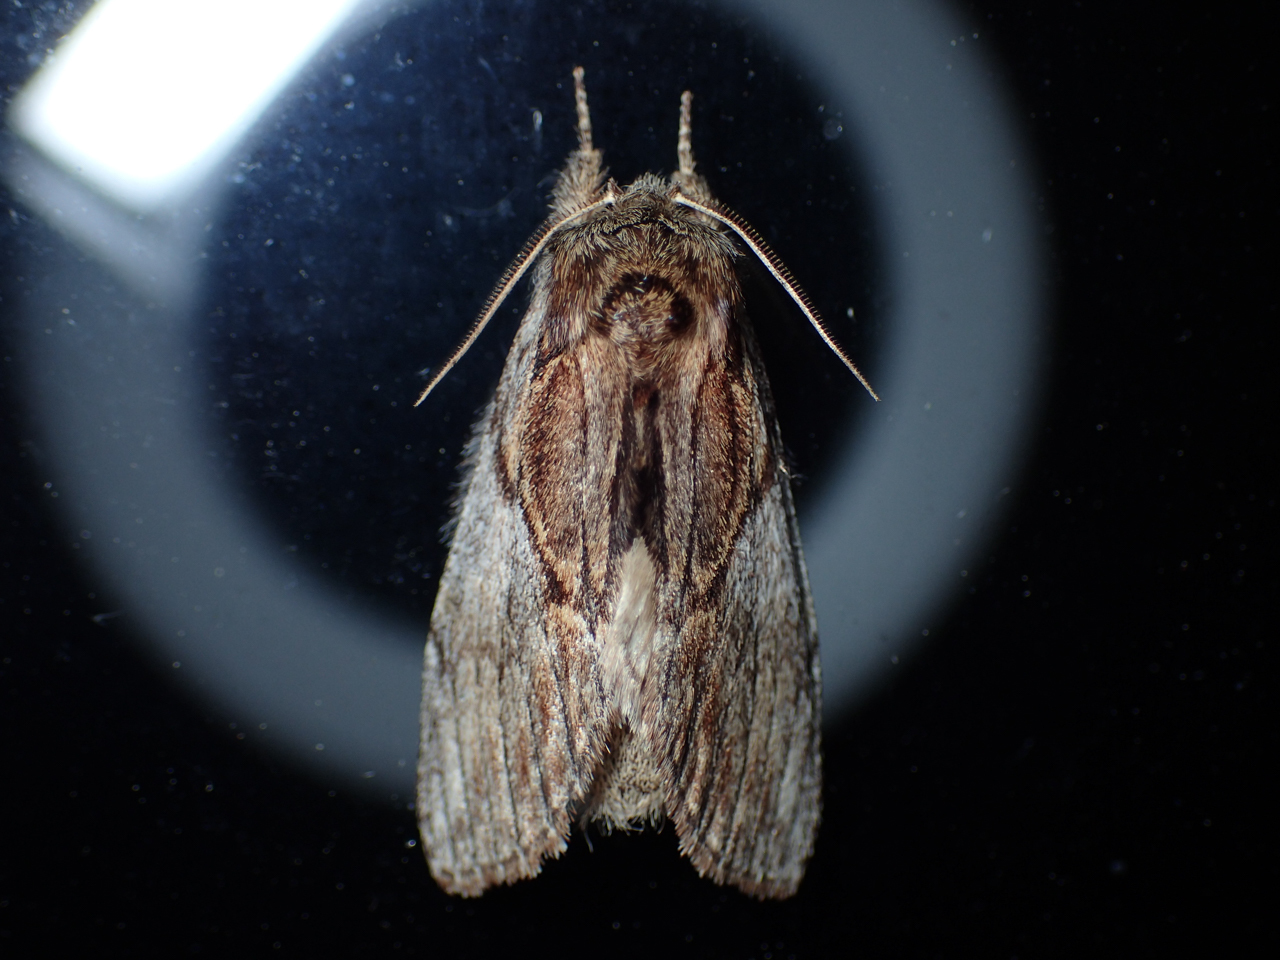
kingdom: Animalia
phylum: Arthropoda
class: Insecta
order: Lepidoptera
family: Notodontidae
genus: Peridea
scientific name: Peridea basitriens
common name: Oval-based prominent
